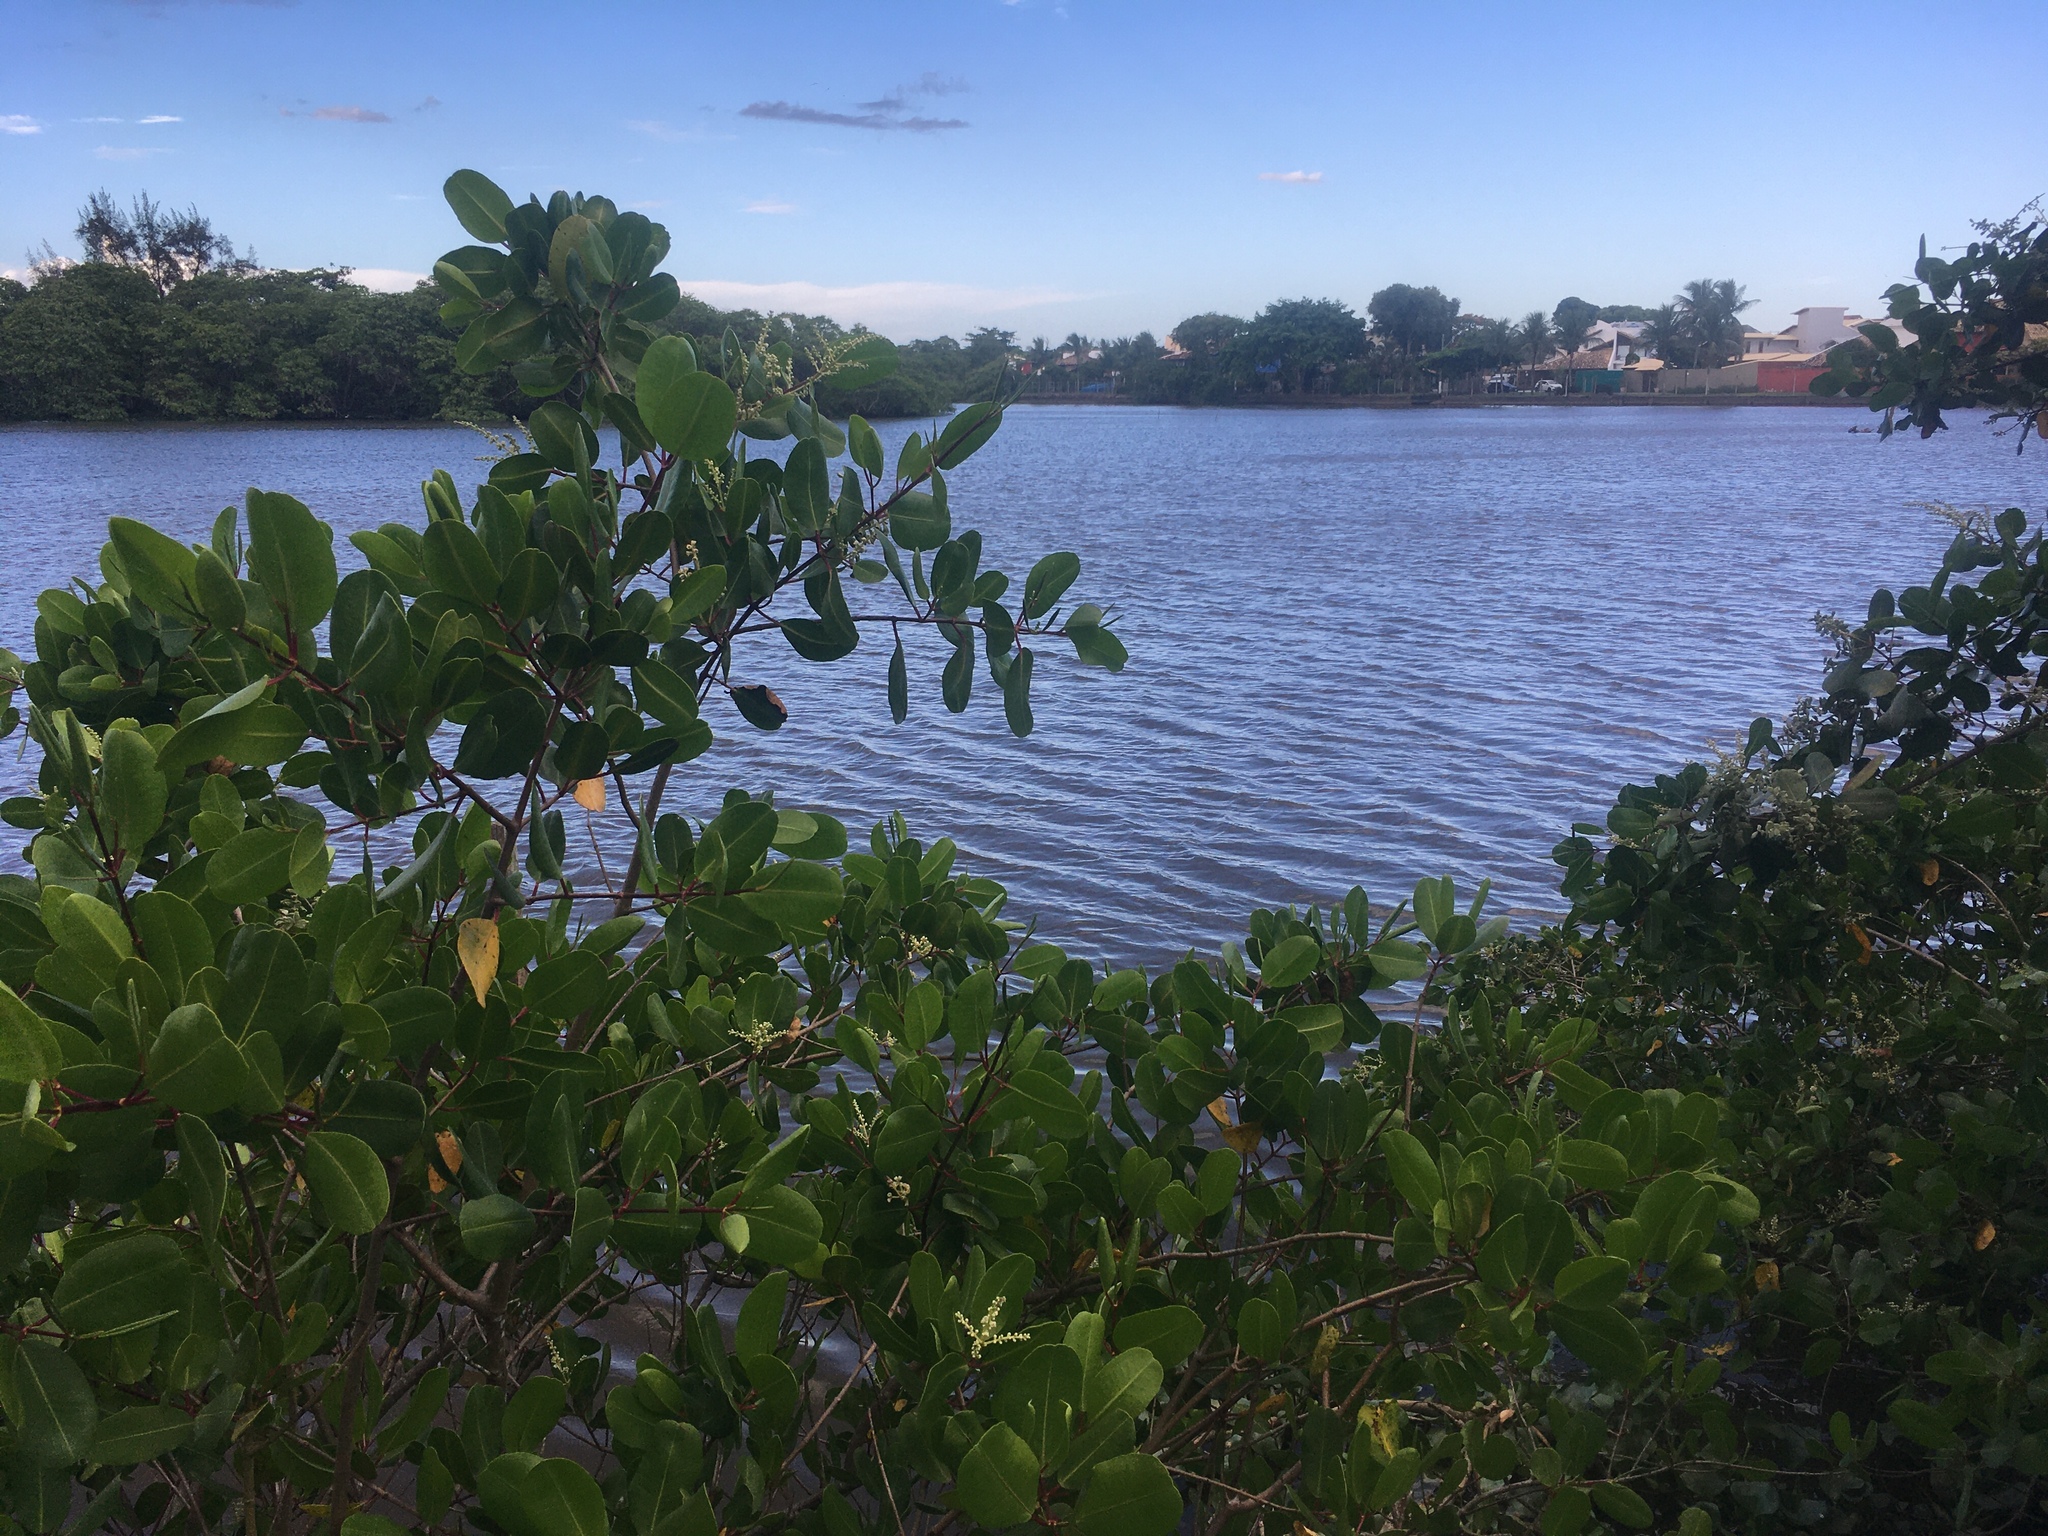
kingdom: Plantae
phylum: Tracheophyta
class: Magnoliopsida
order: Myrtales
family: Combretaceae
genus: Laguncularia
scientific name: Laguncularia racemosa
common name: White mangrove
